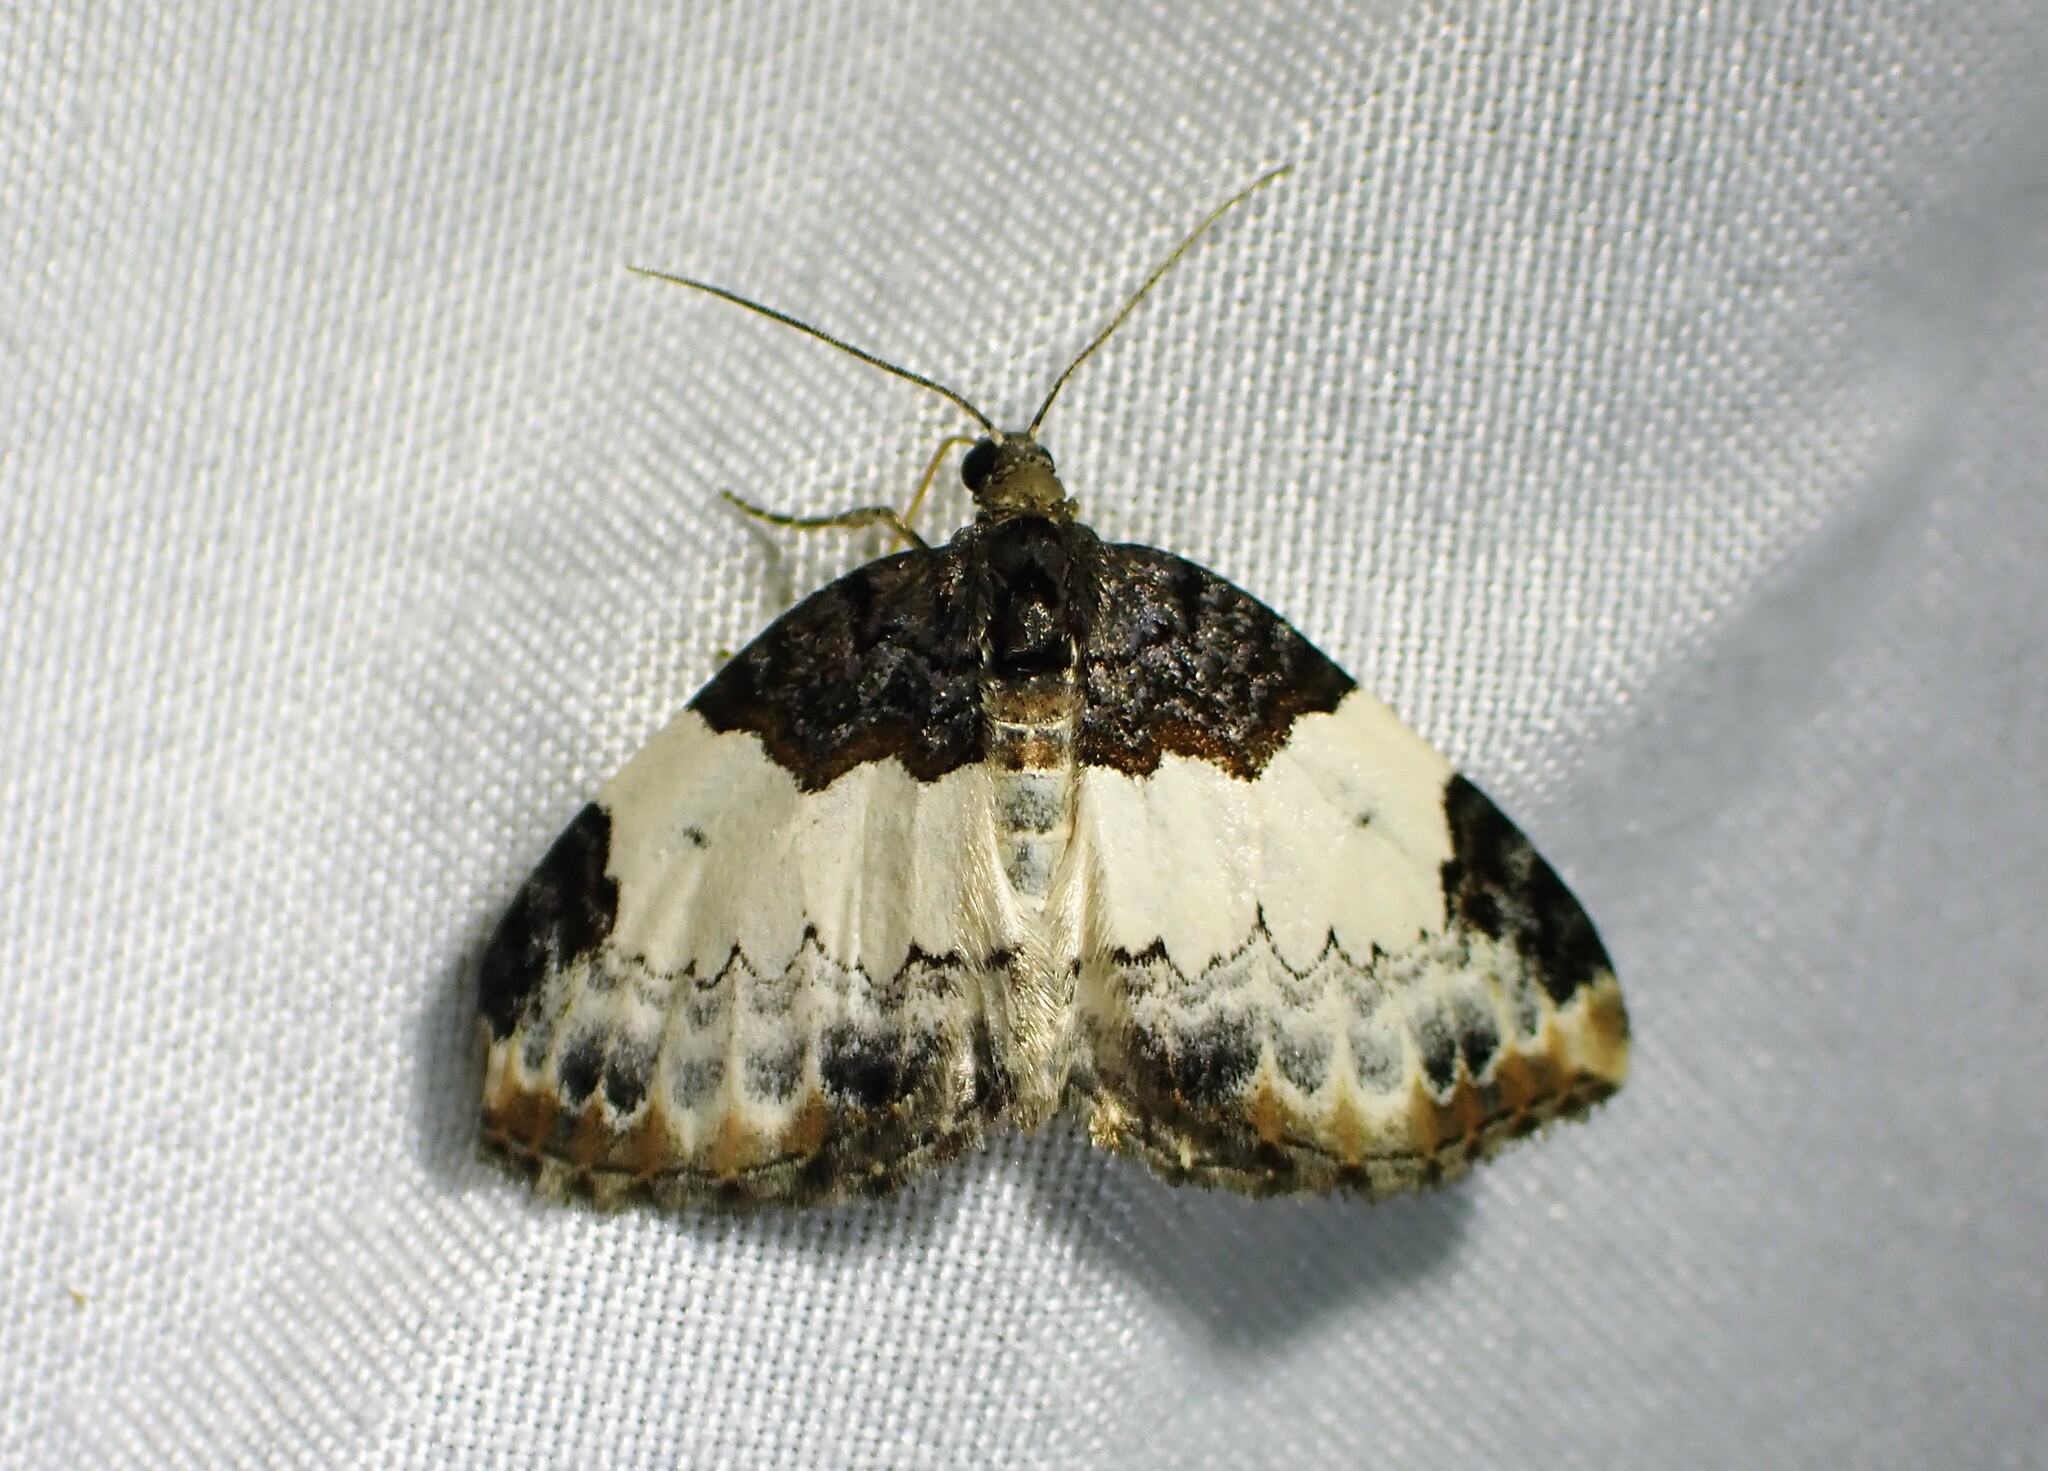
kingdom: Animalia
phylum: Arthropoda
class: Insecta
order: Lepidoptera
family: Geometridae
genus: Mesoleuca
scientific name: Mesoleuca ruficillata
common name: White-ribboned carpet moth
